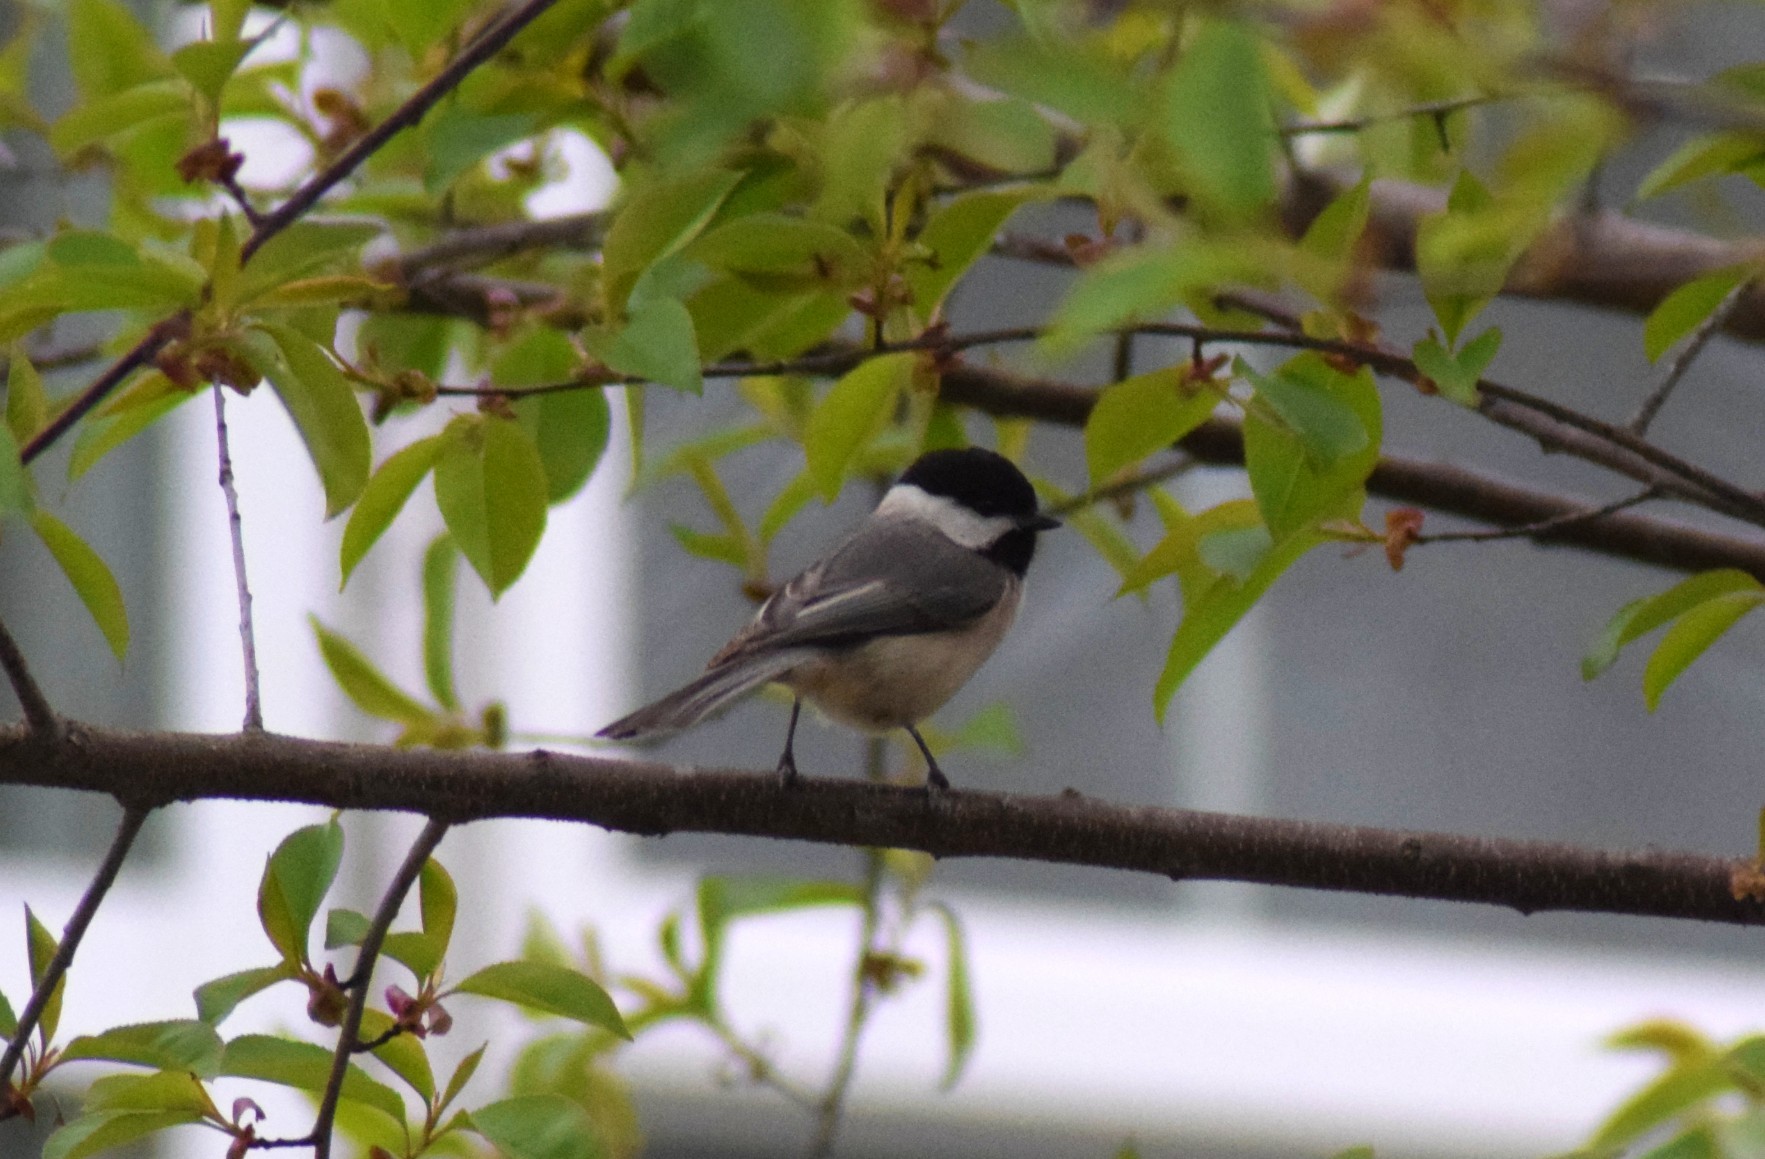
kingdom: Animalia
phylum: Chordata
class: Aves
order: Passeriformes
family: Paridae
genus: Poecile
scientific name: Poecile carolinensis
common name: Carolina chickadee
